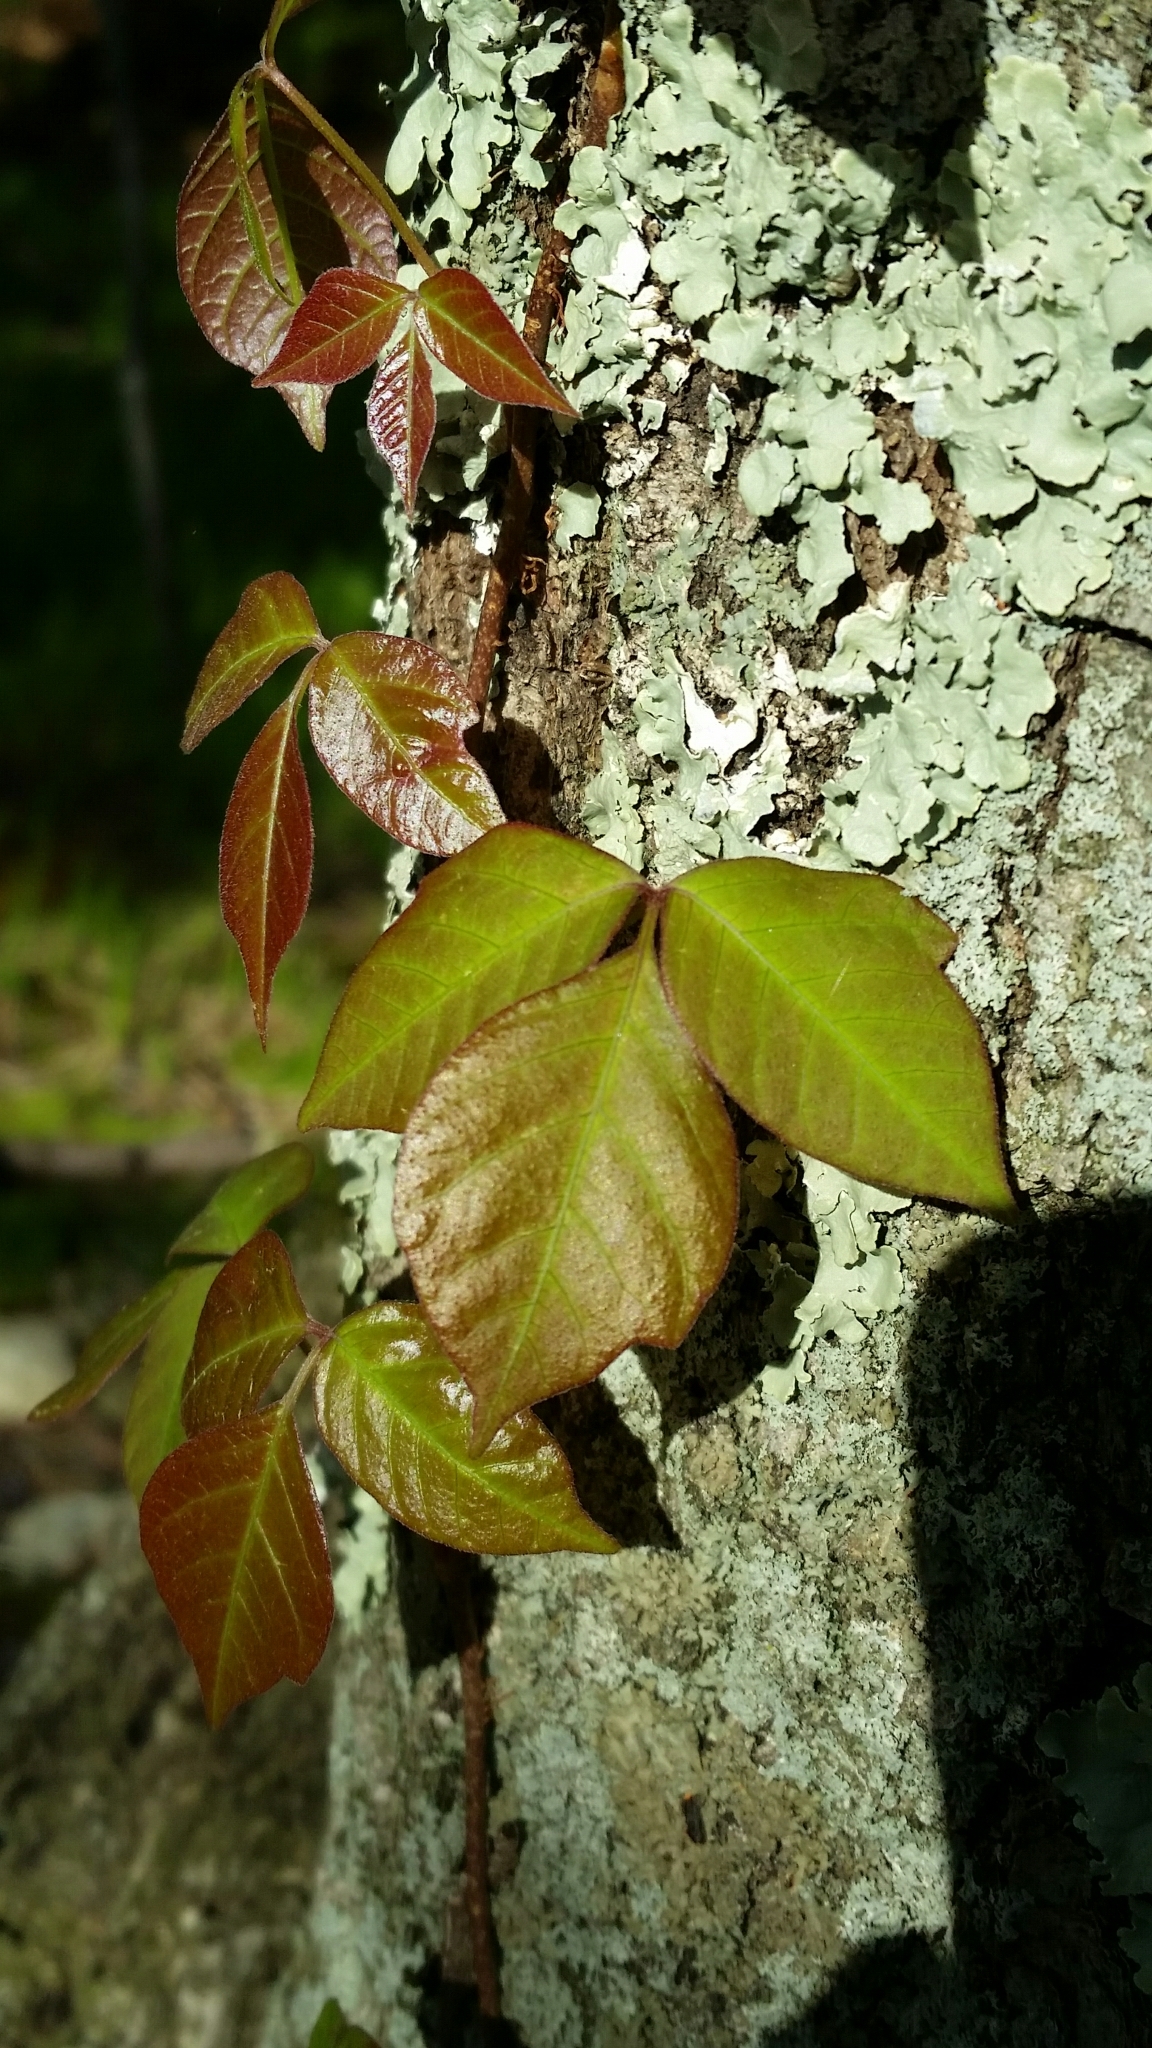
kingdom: Plantae
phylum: Tracheophyta
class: Magnoliopsida
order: Sapindales
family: Anacardiaceae
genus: Toxicodendron
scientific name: Toxicodendron radicans
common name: Poison ivy
